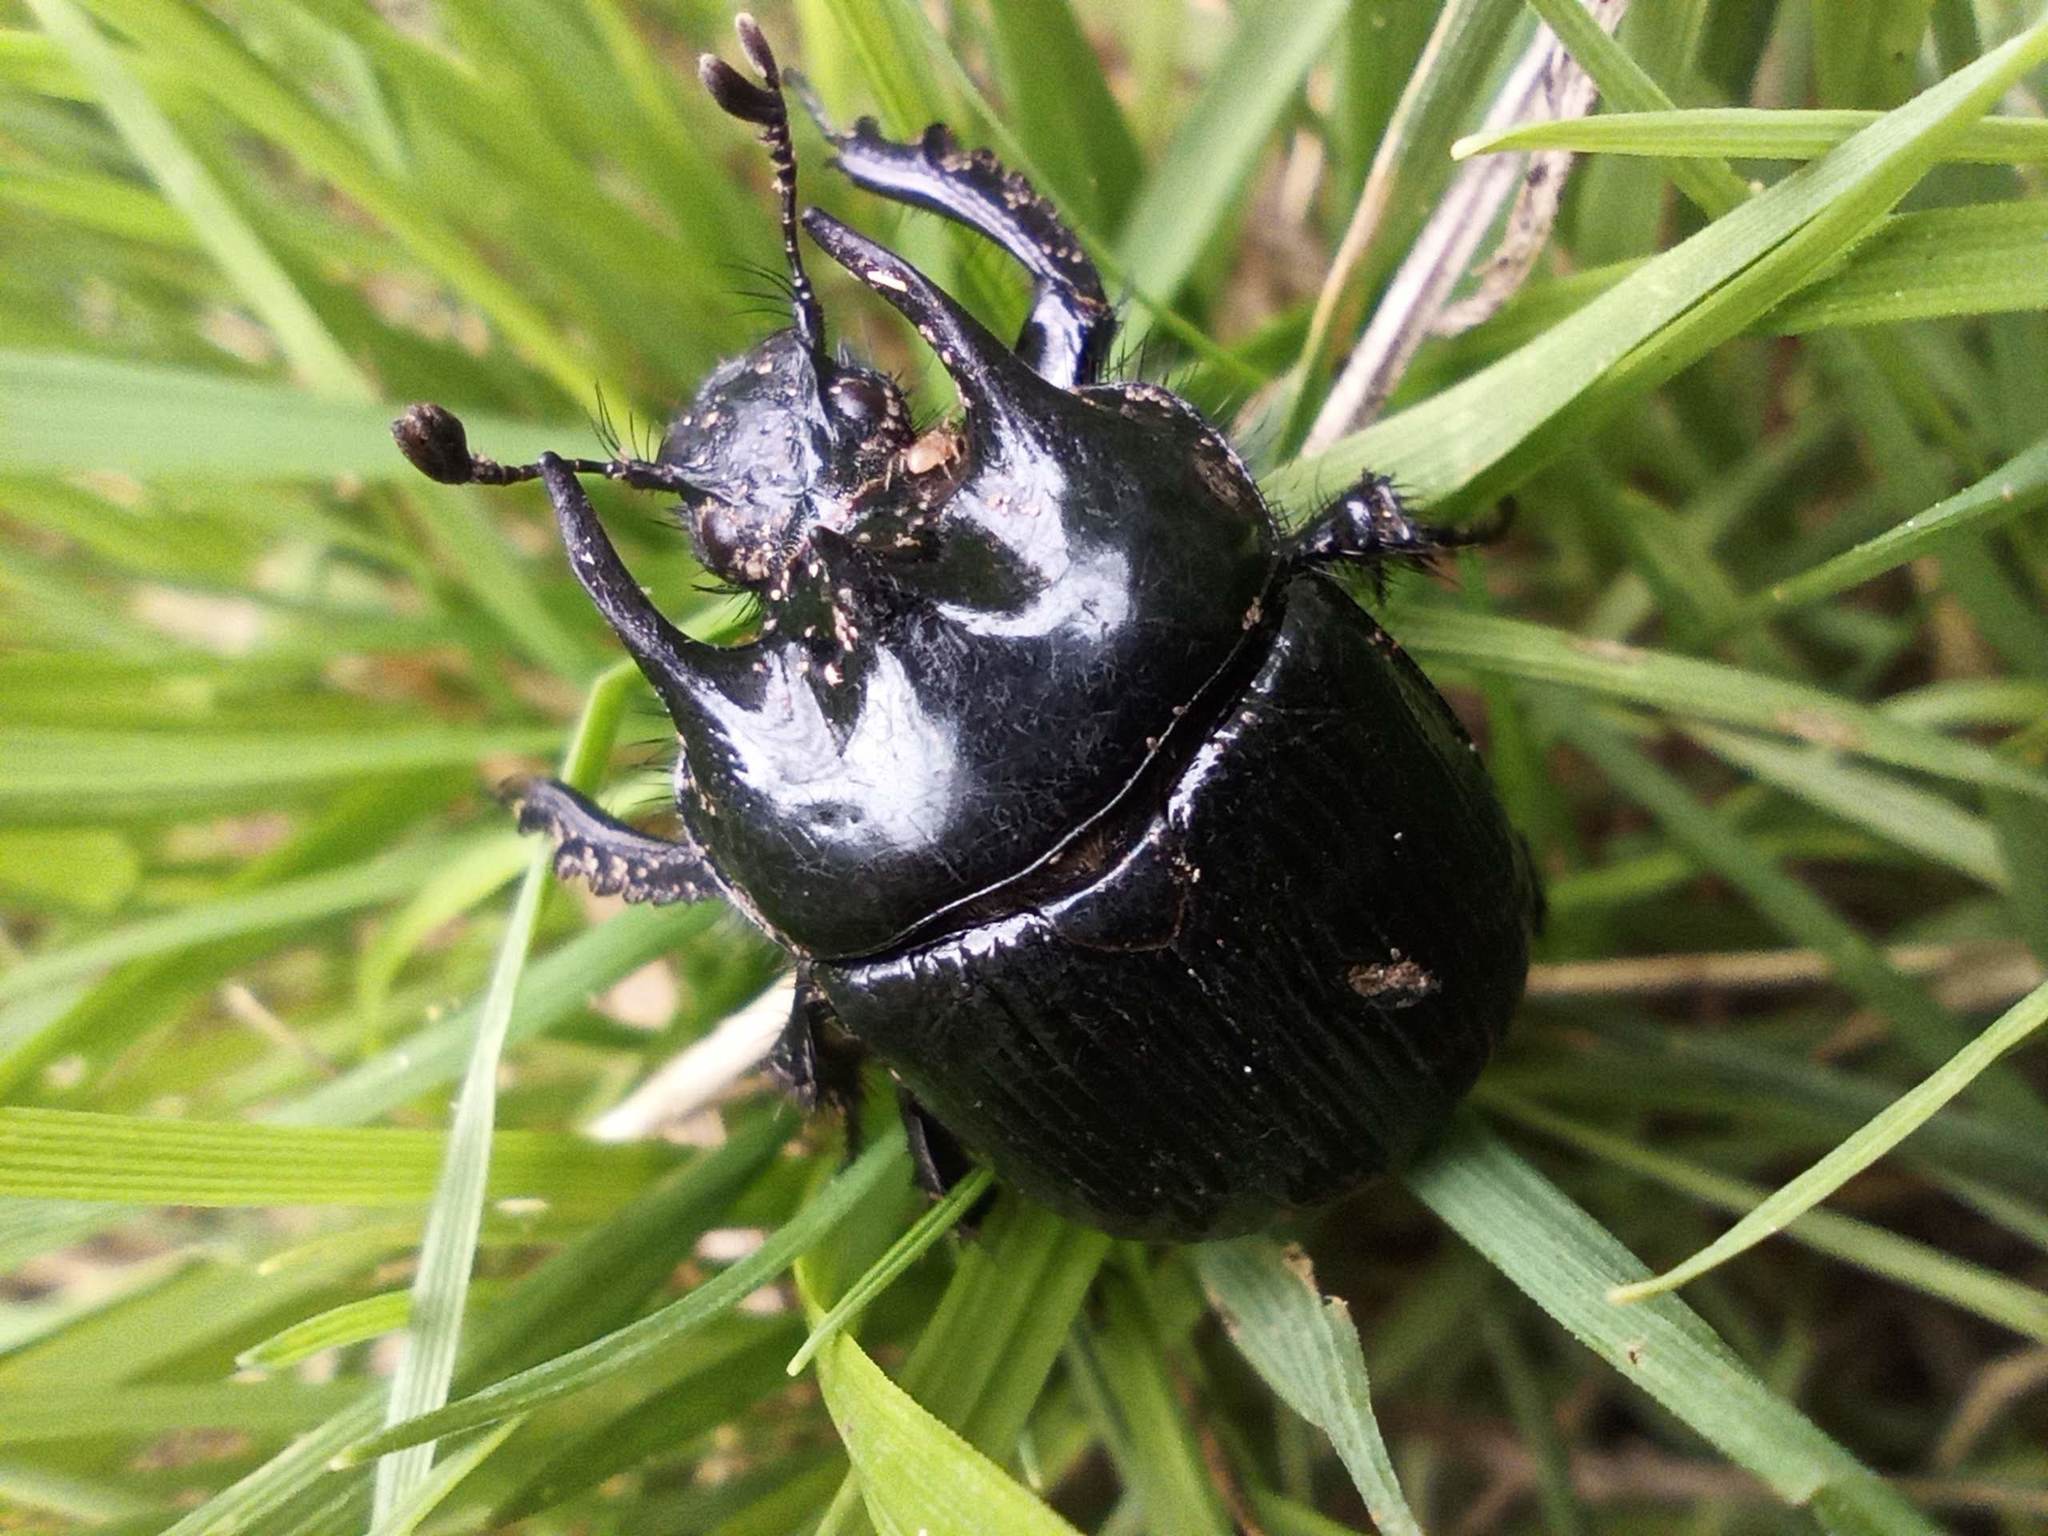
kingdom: Animalia
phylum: Arthropoda
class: Insecta
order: Coleoptera
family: Geotrupidae
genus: Typhaeus
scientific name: Typhaeus typhoeus
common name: Minotaur beetle
